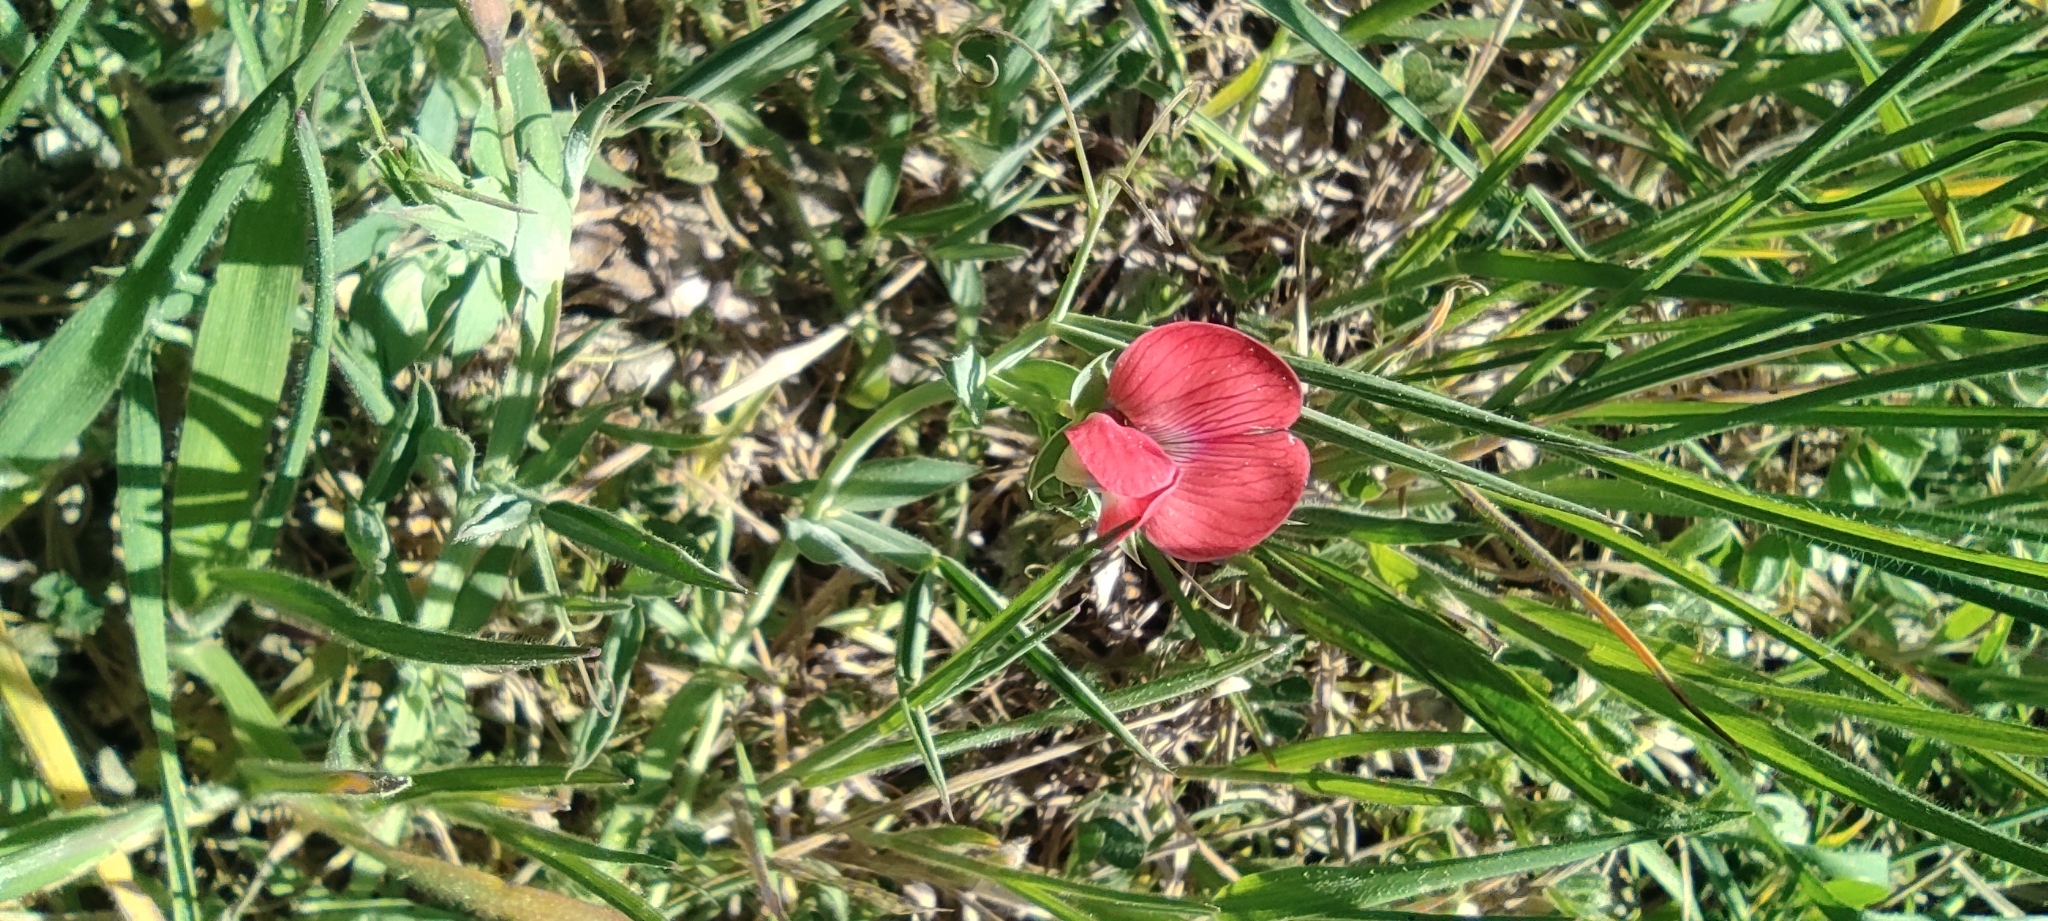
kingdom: Plantae
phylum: Tracheophyta
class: Magnoliopsida
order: Fabales
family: Fabaceae
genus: Lathyrus
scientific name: Lathyrus cicera
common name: Red vetchling
